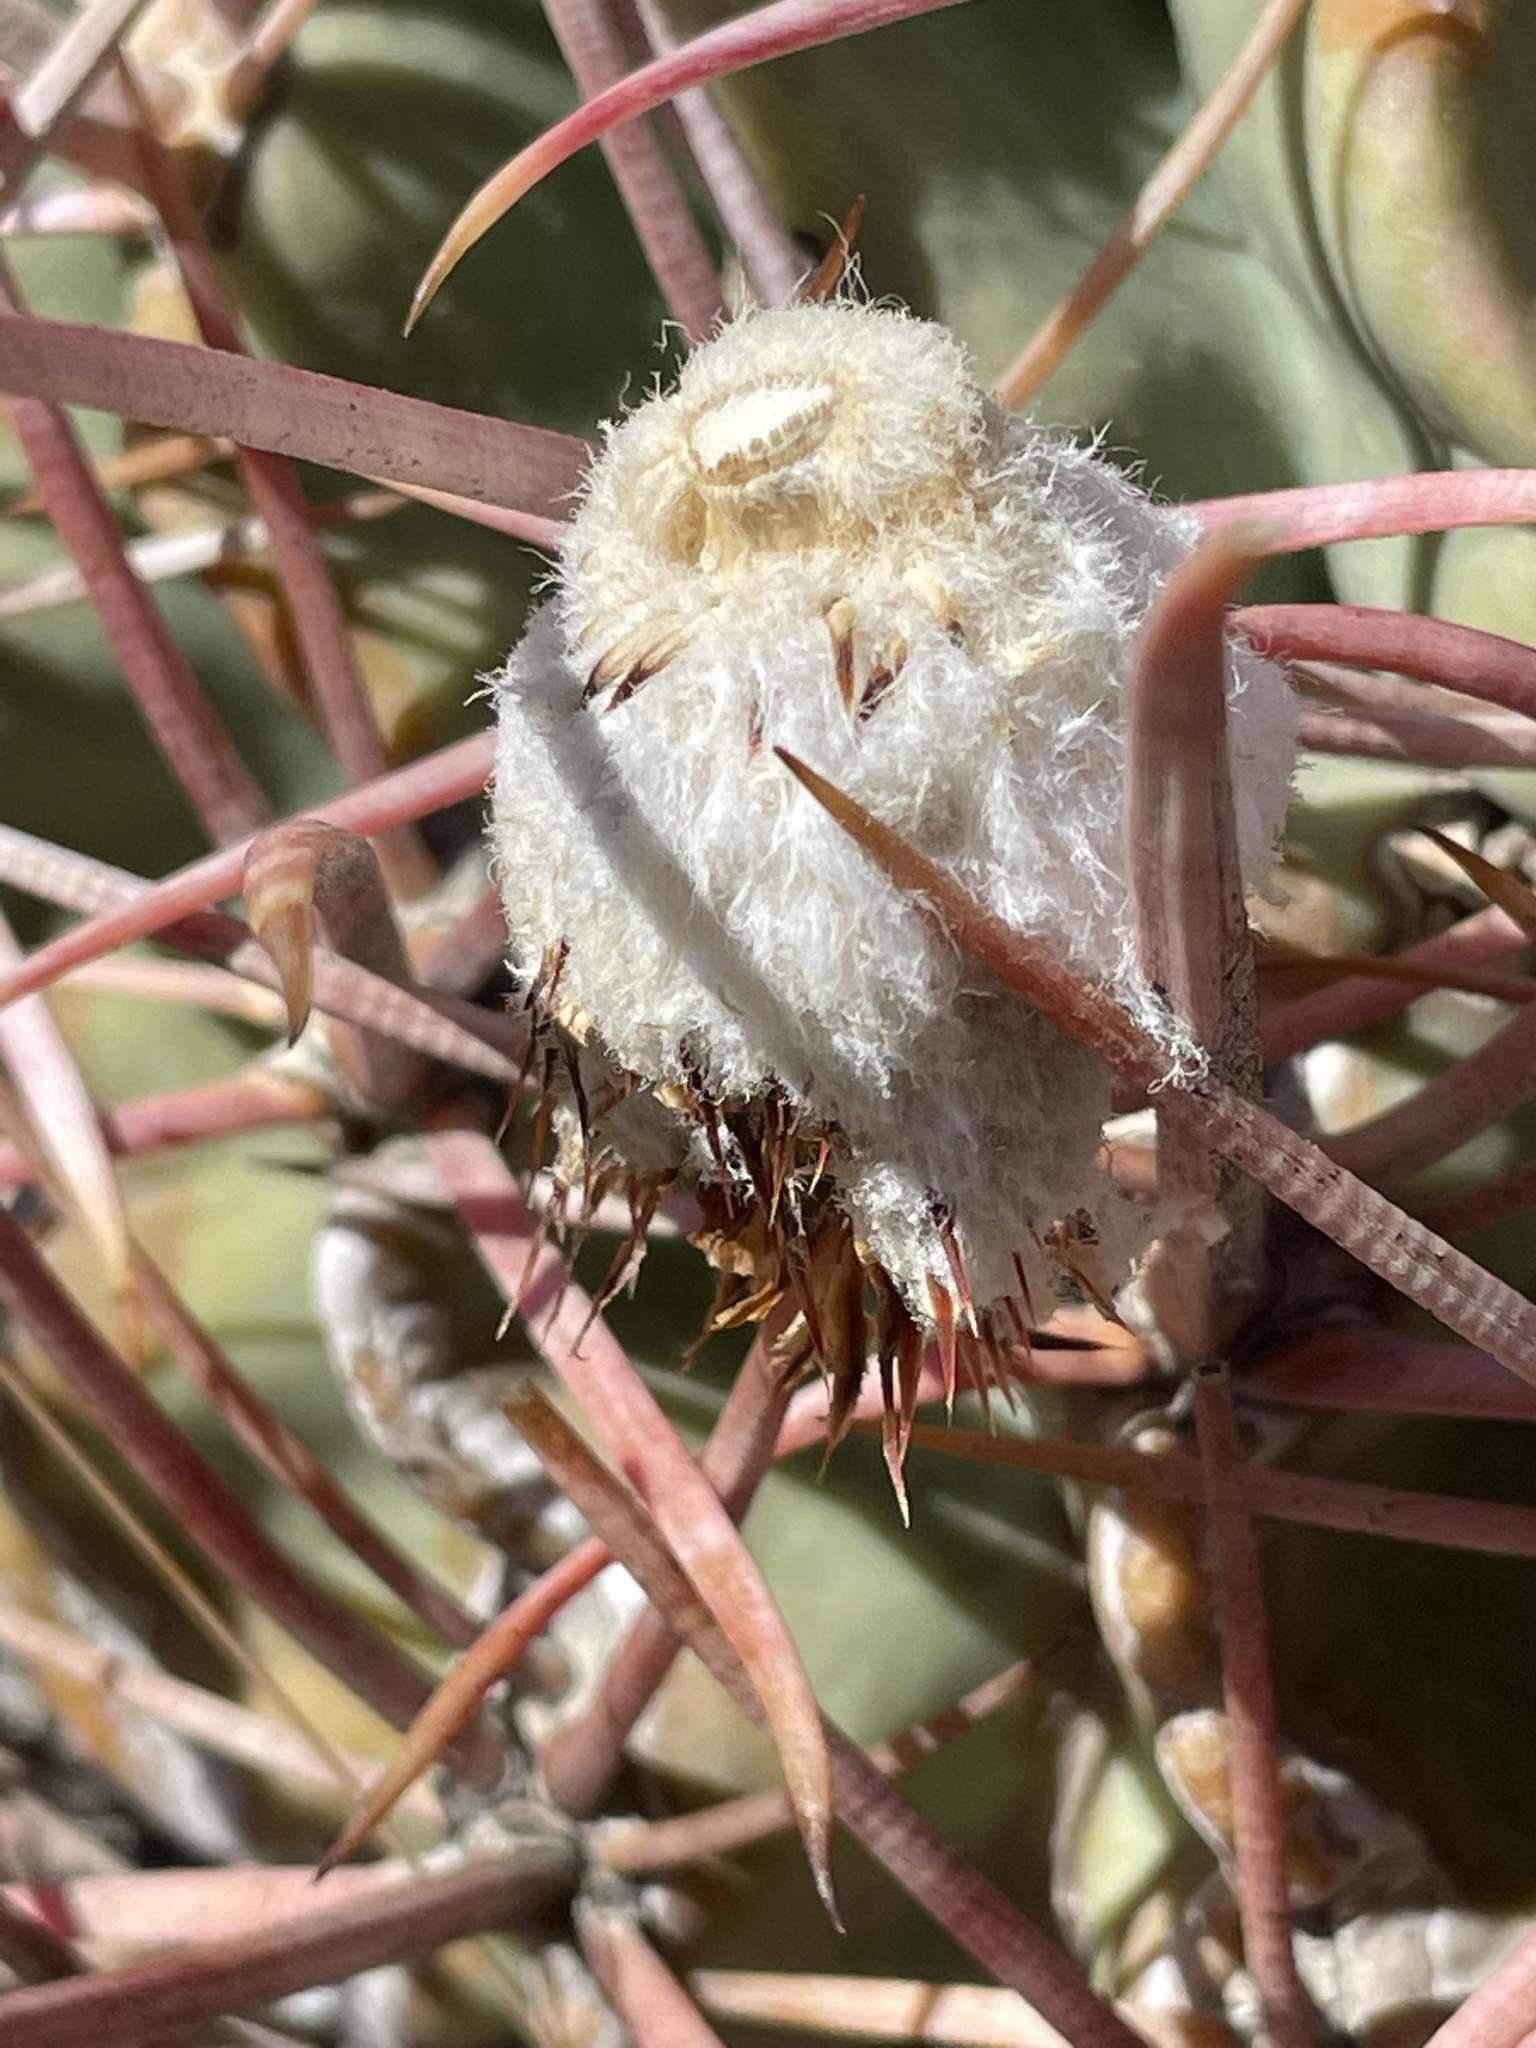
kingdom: Plantae
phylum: Tracheophyta
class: Magnoliopsida
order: Caryophyllales
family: Cactaceae
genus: Echinocactus
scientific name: Echinocactus polycephalus
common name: Cottontop cactus
